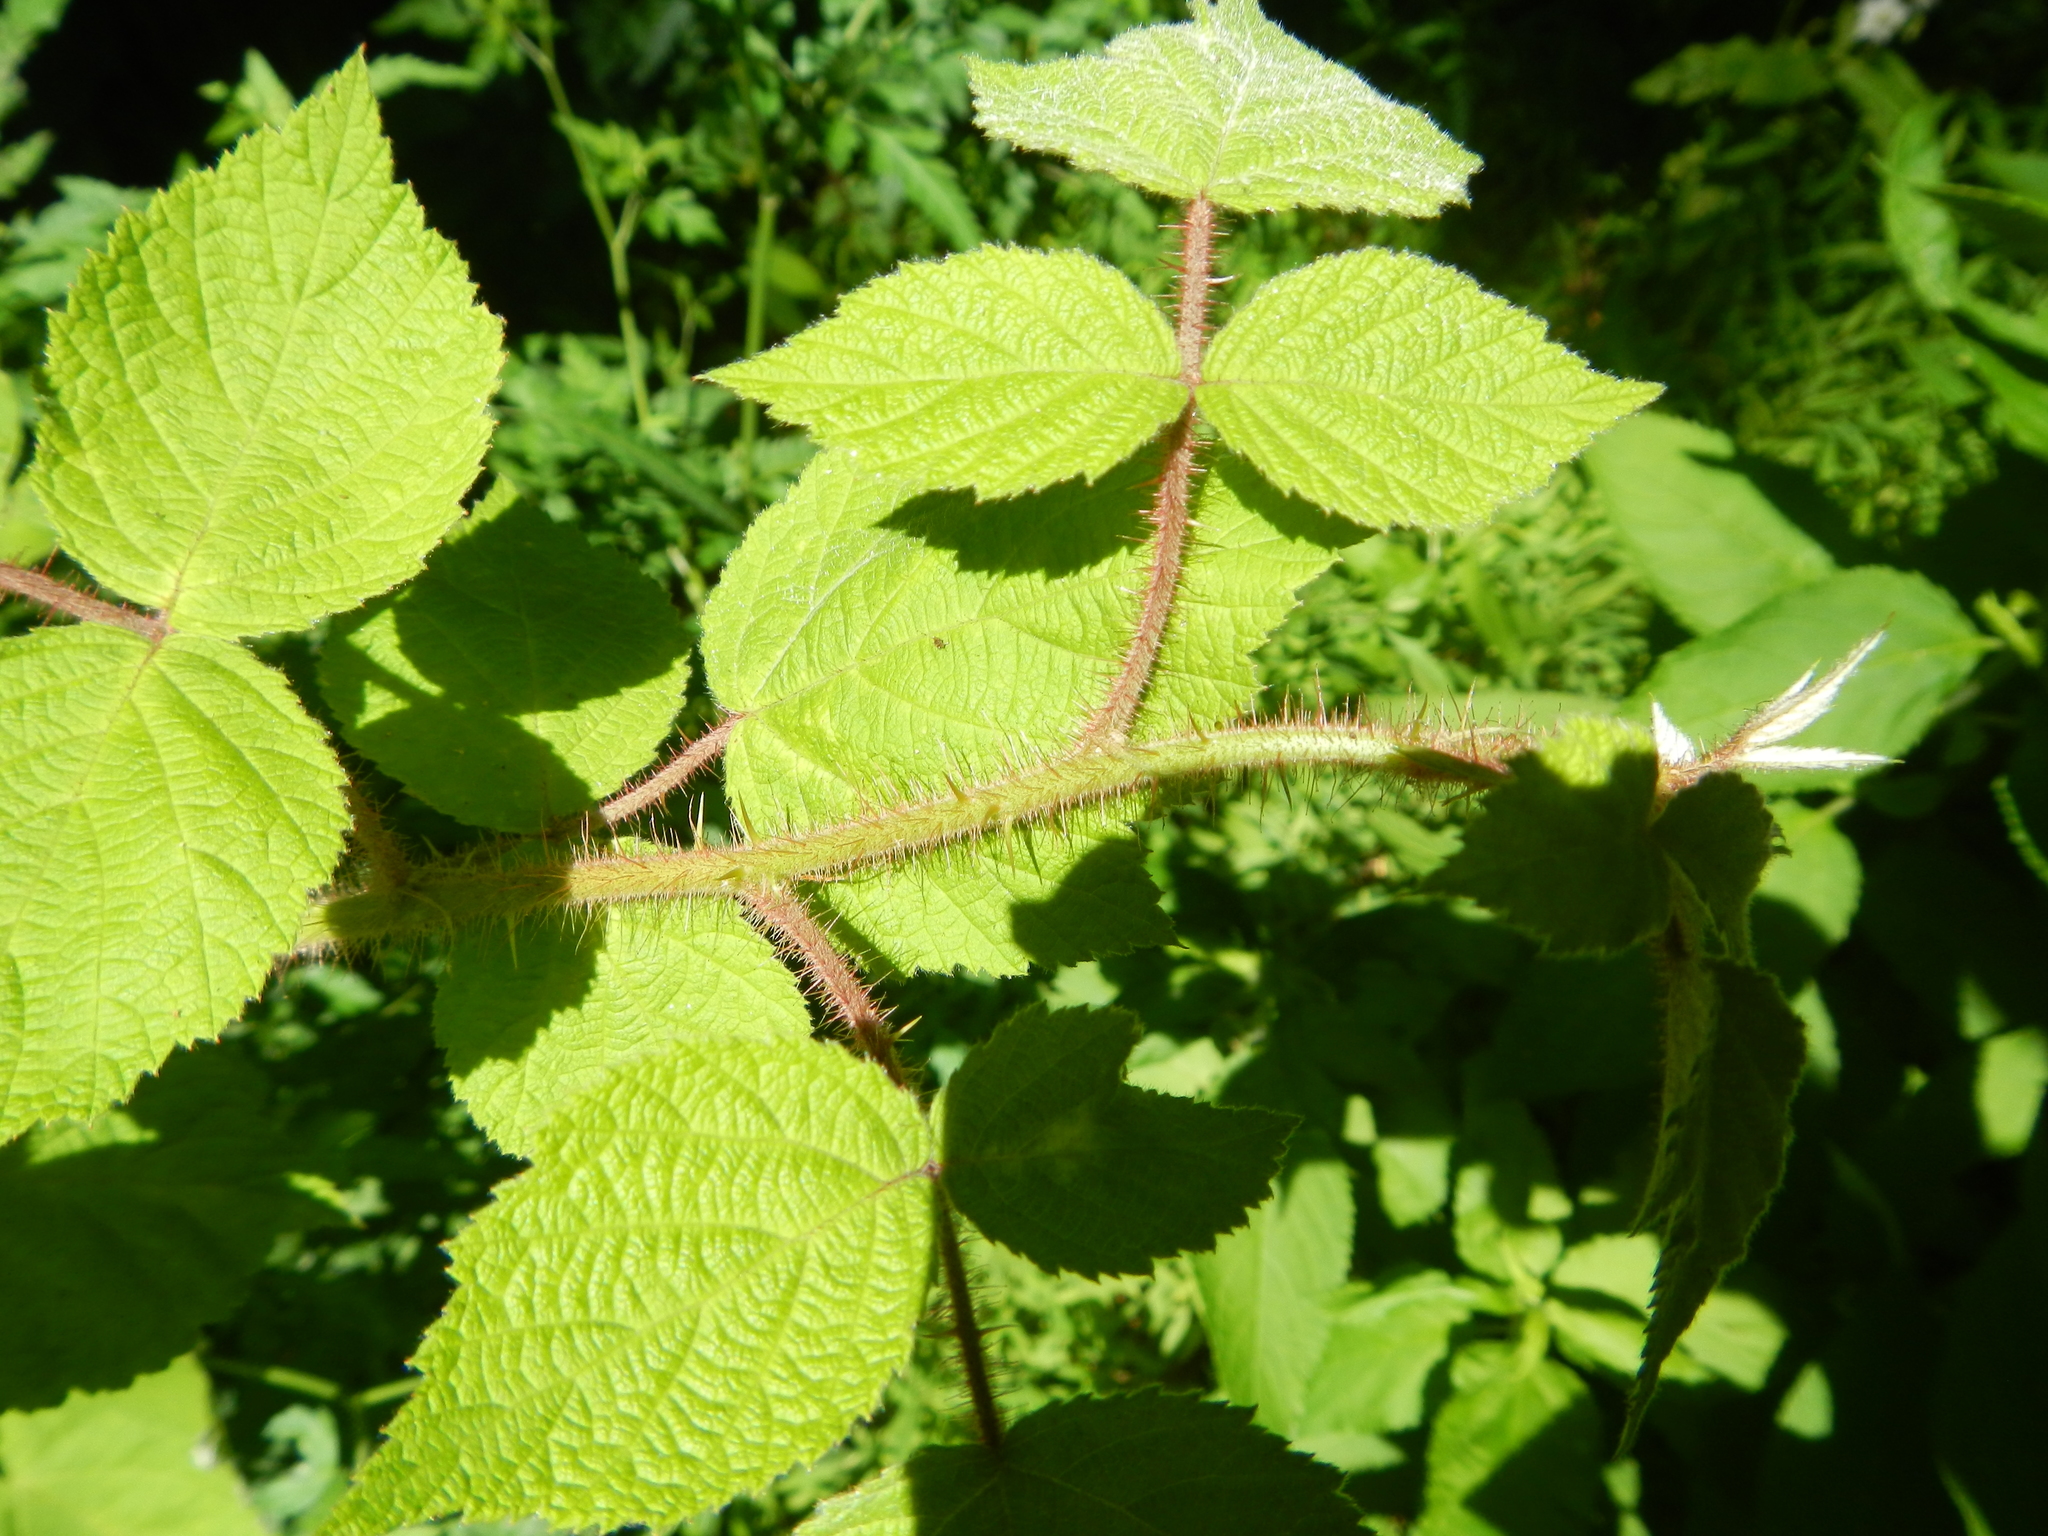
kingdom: Plantae
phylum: Tracheophyta
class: Magnoliopsida
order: Rosales
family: Rosaceae
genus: Rubus
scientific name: Rubus phoenicolasius
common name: Japanese wineberry
